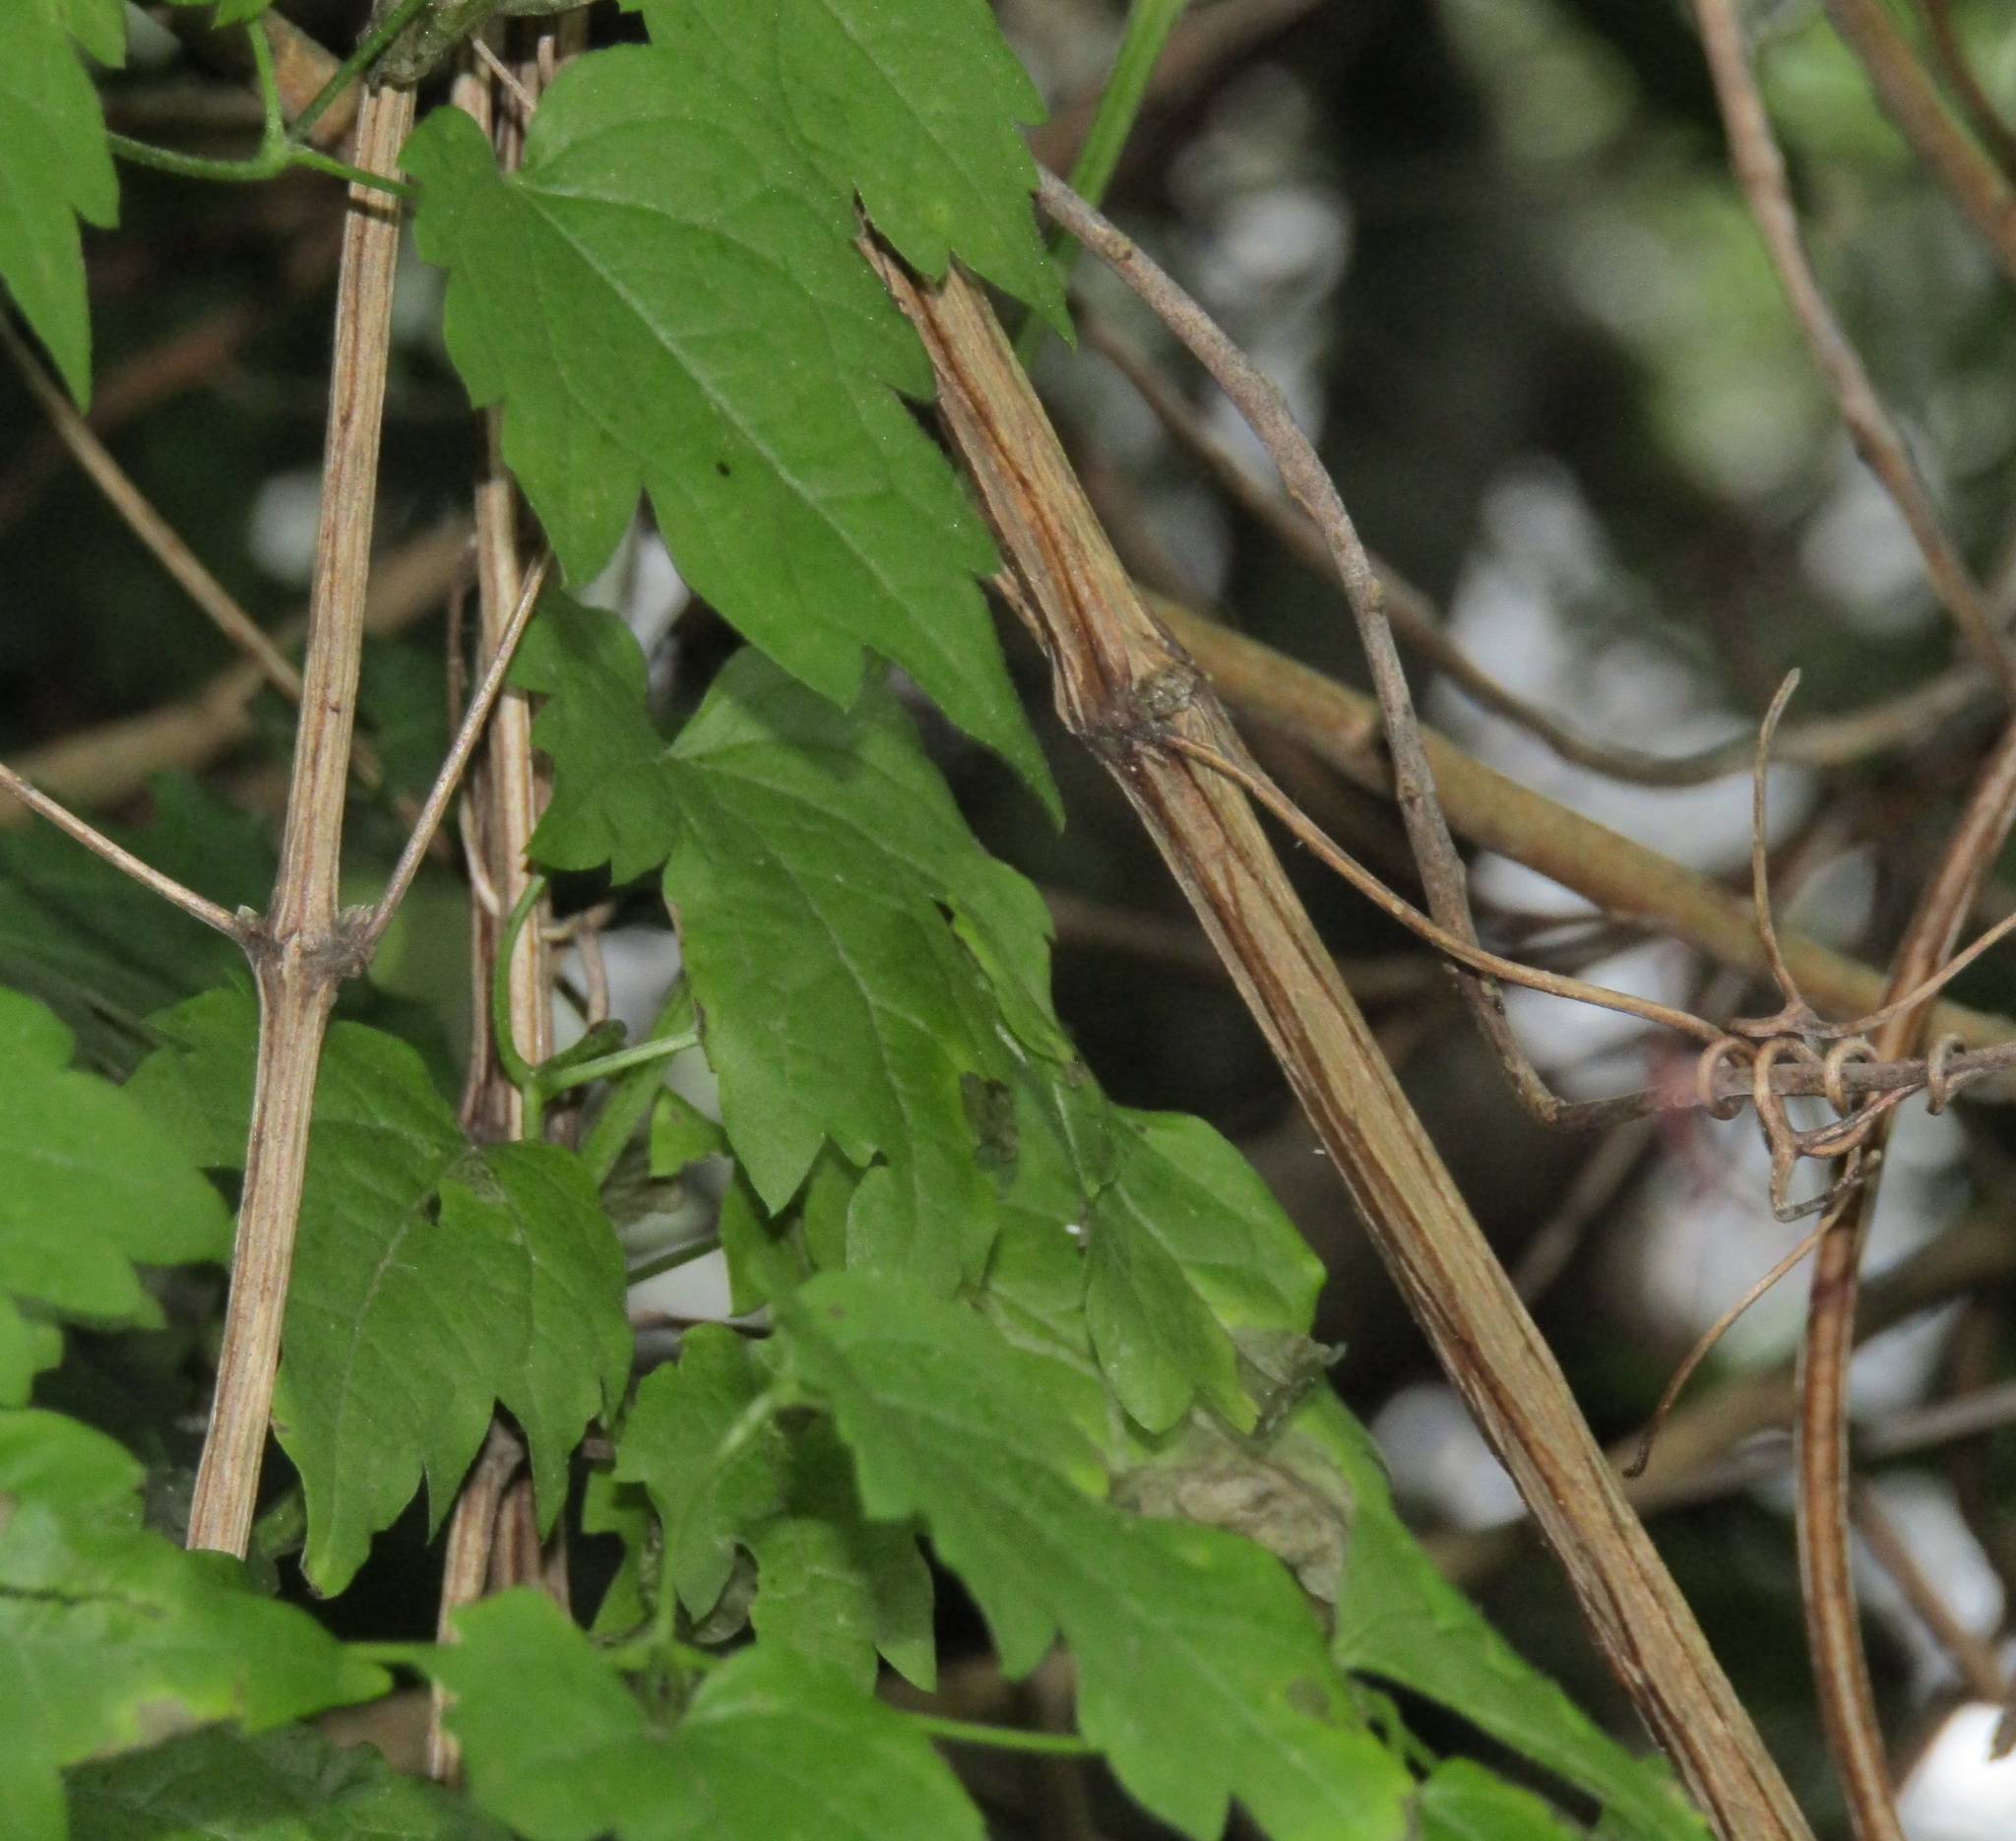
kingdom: Plantae
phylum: Tracheophyta
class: Magnoliopsida
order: Ranunculales
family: Ranunculaceae
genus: Clematis
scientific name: Clematis vitalba
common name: Evergreen clematis
